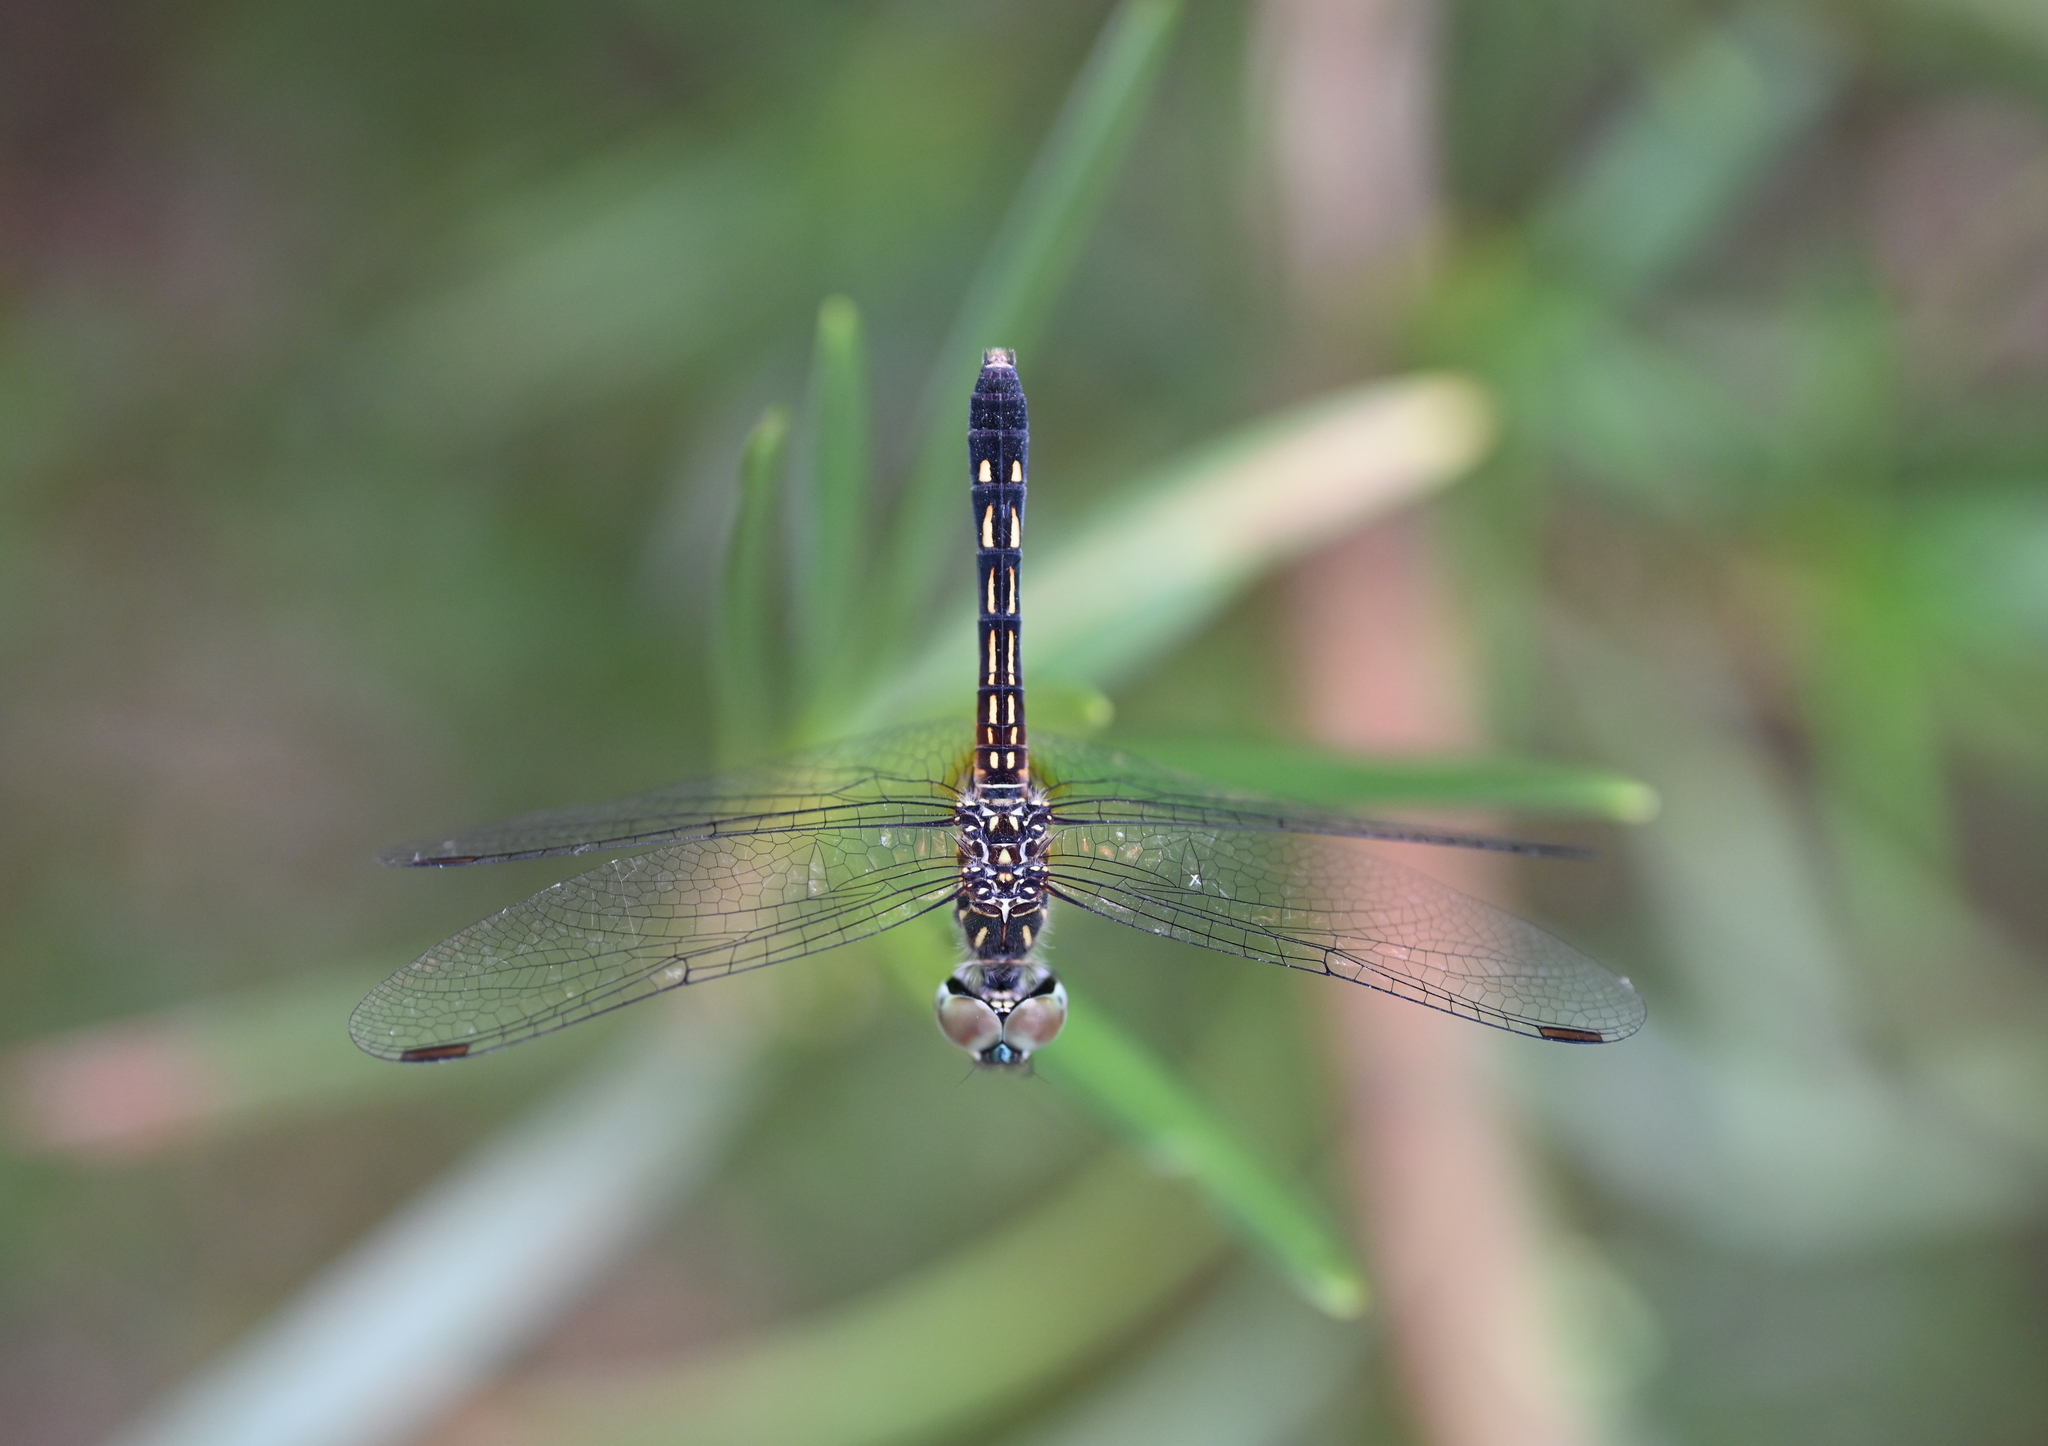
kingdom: Animalia
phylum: Arthropoda
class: Insecta
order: Odonata
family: Libellulidae
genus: Pachydiplax
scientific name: Pachydiplax longipennis
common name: Blue dasher
